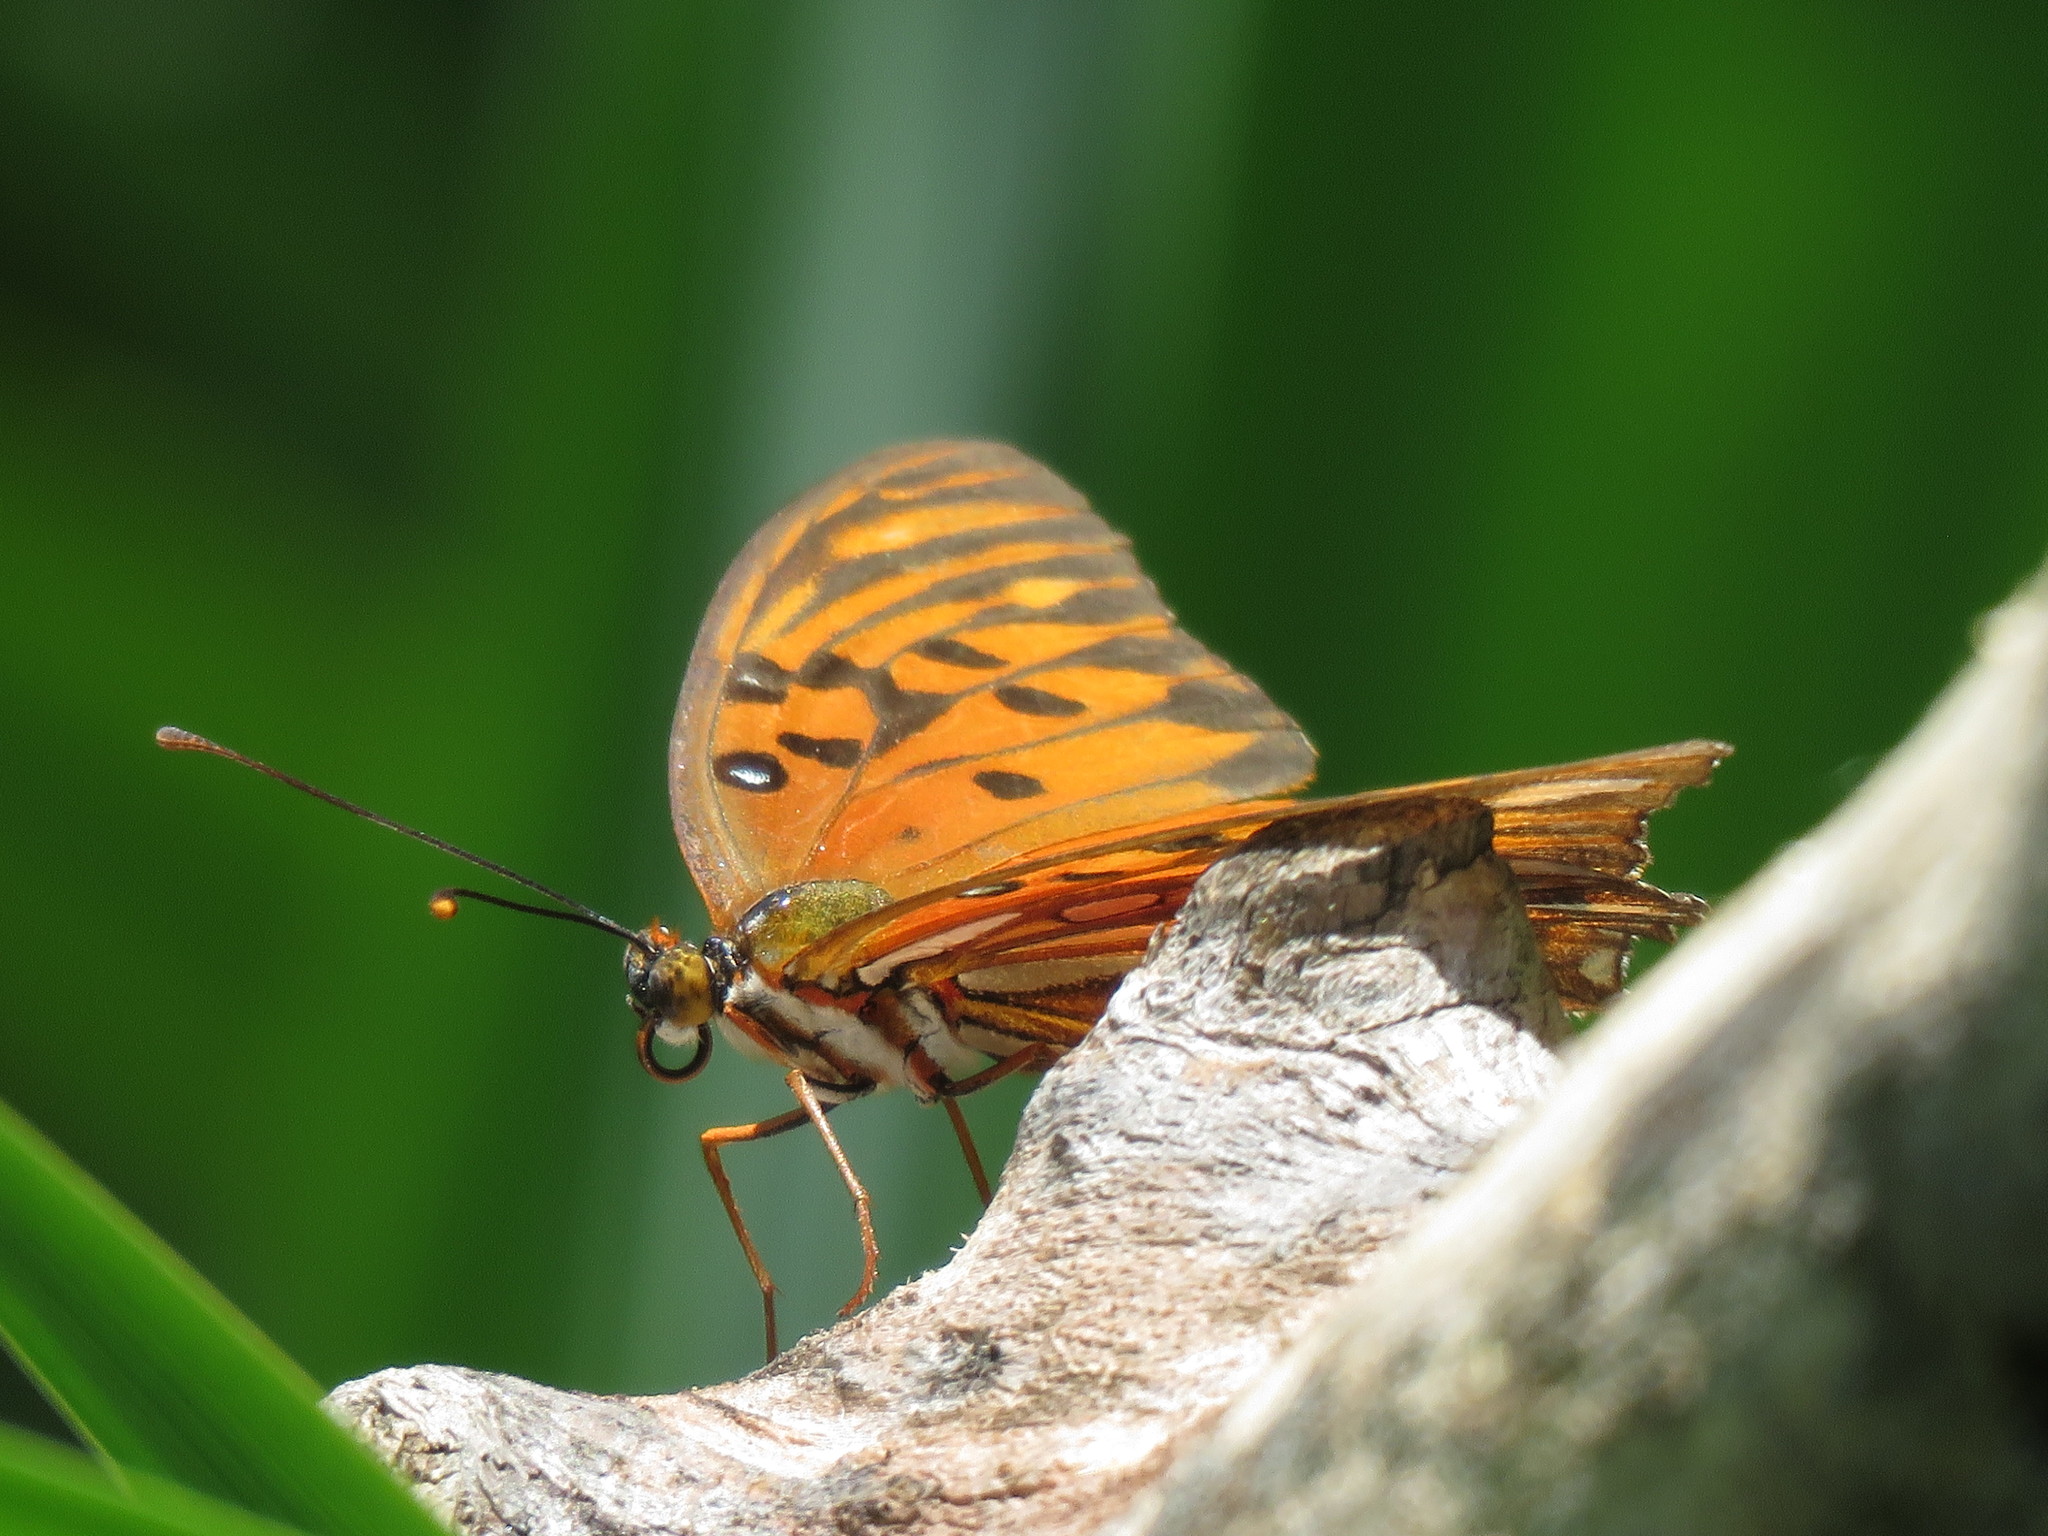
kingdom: Animalia
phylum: Arthropoda
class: Insecta
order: Lepidoptera
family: Nymphalidae
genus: Dione
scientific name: Dione vanillae
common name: Gulf fritillary
